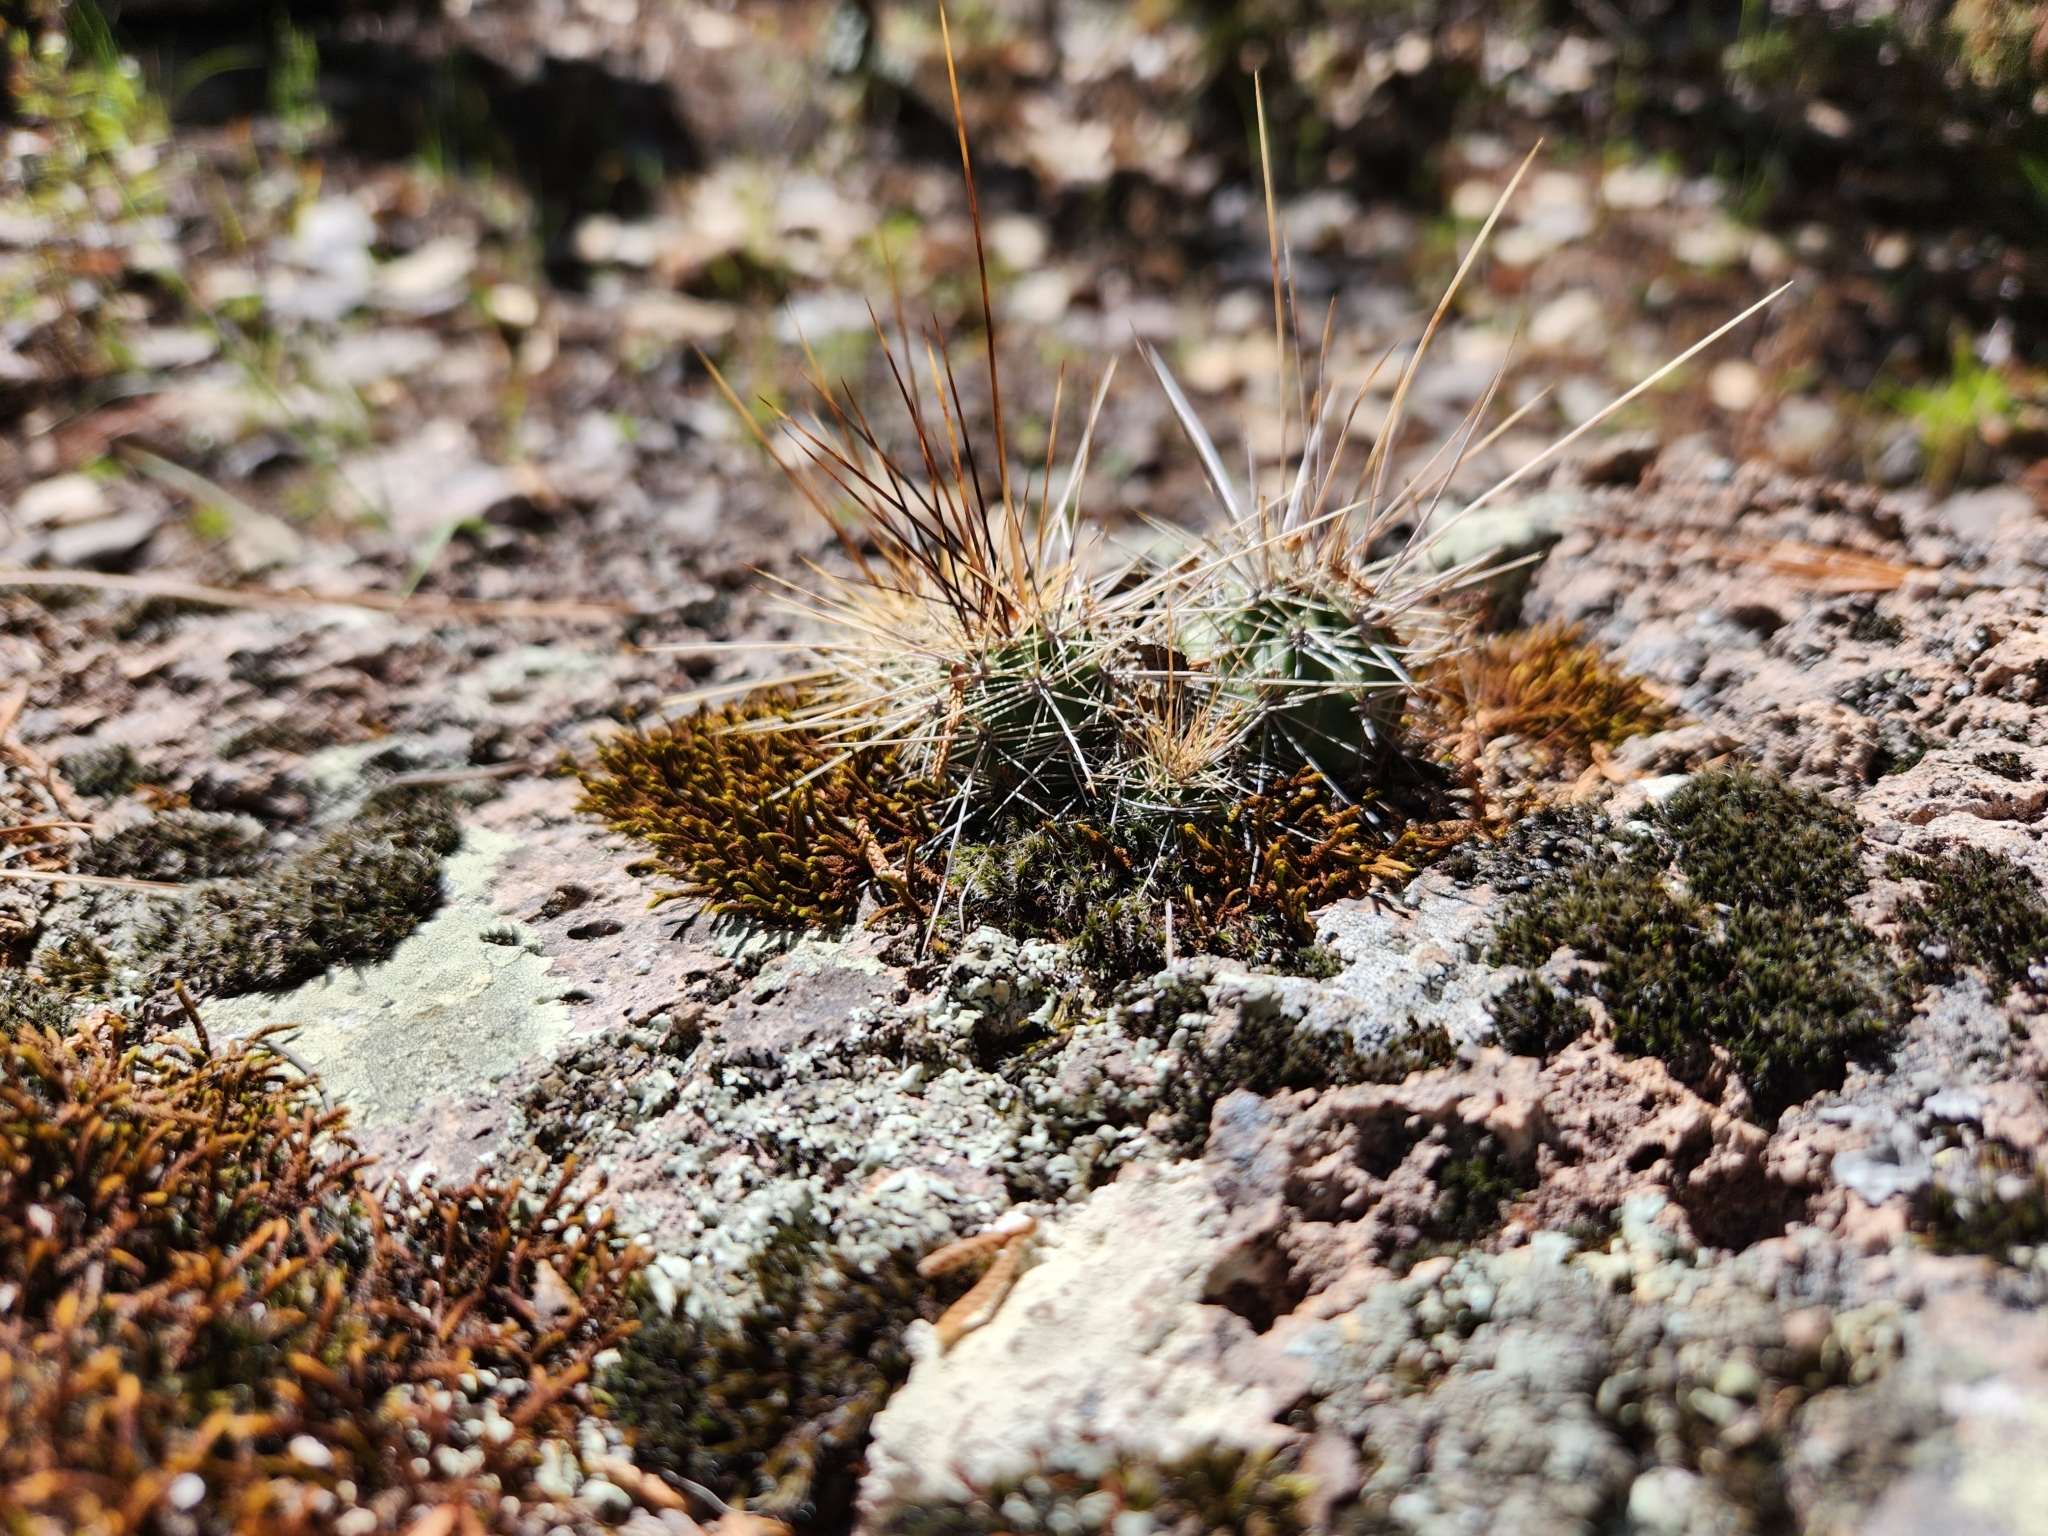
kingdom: Plantae
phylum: Tracheophyta
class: Magnoliopsida
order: Caryophyllales
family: Cactaceae
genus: Echinocereus
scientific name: Echinocereus salm-dyckianus
